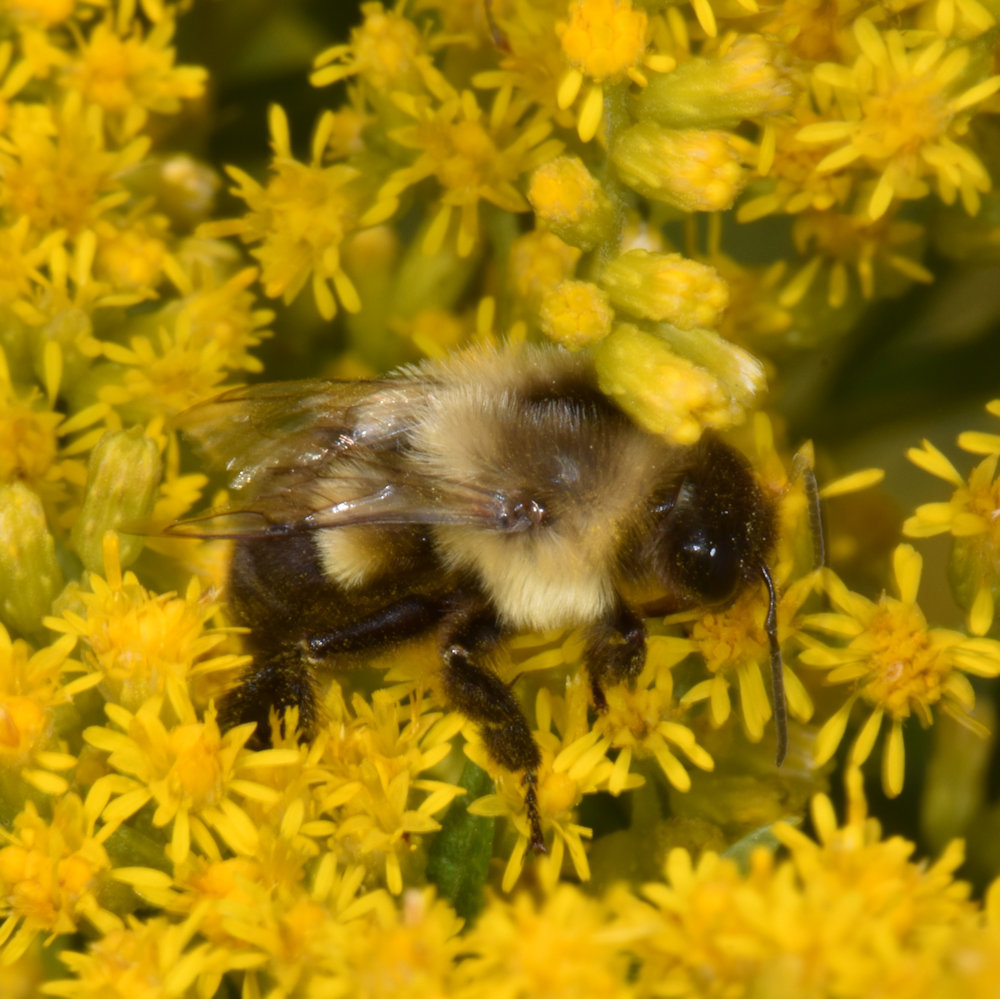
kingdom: Animalia
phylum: Arthropoda
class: Insecta
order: Hymenoptera
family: Apidae
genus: Bombus
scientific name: Bombus impatiens
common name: Common eastern bumble bee
